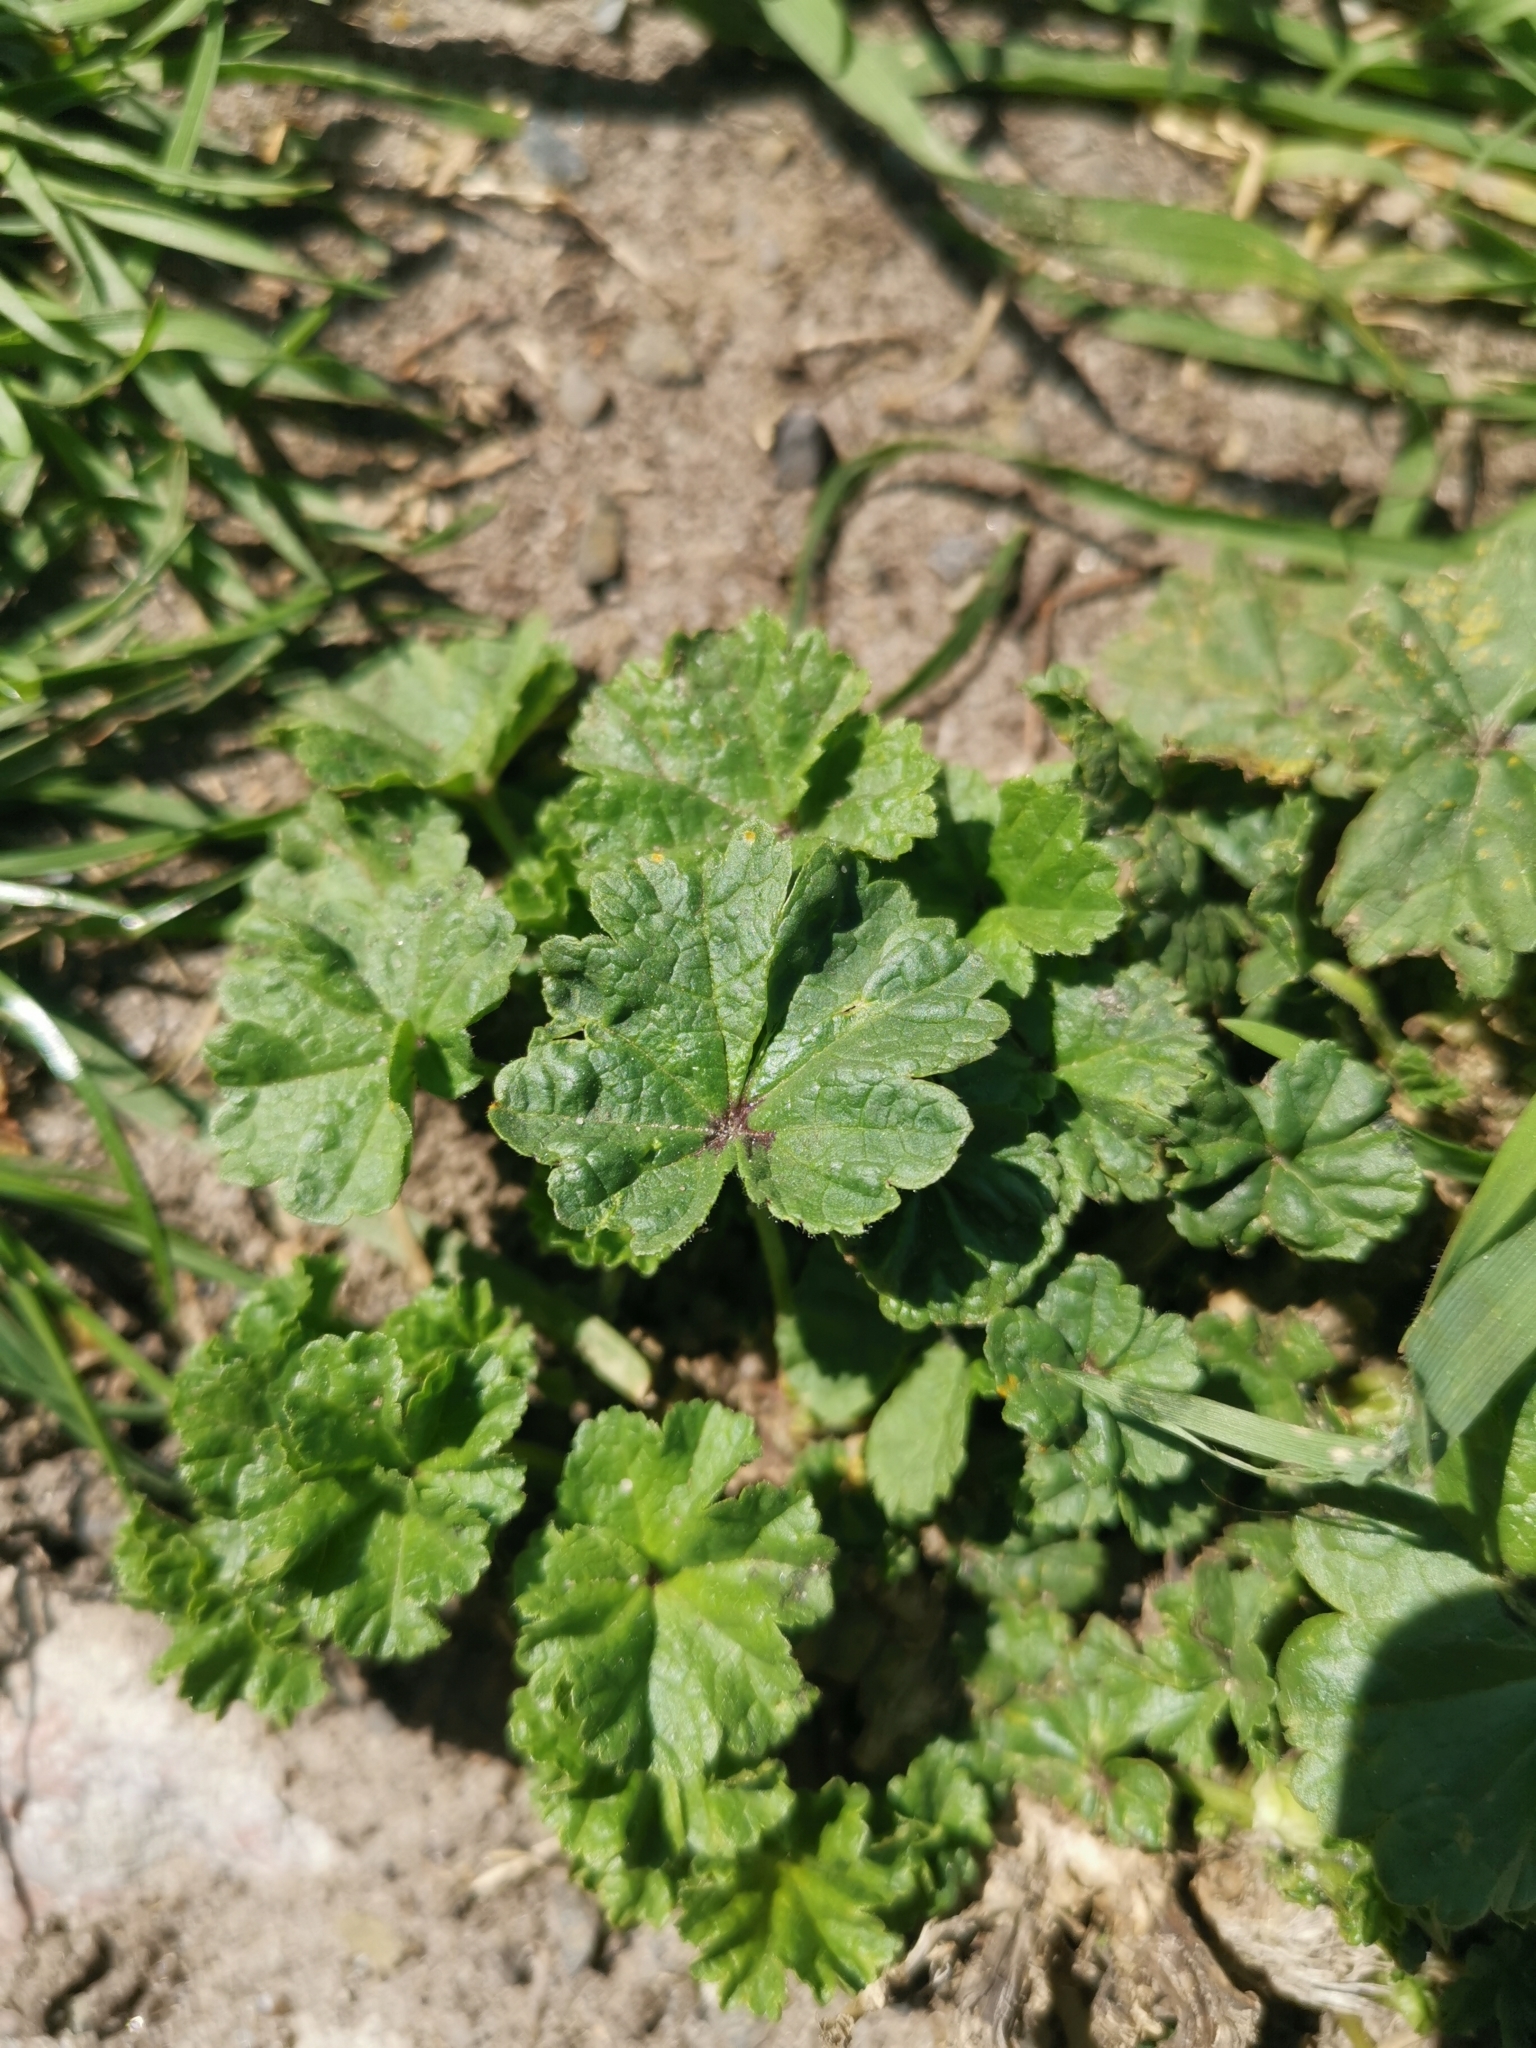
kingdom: Plantae
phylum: Tracheophyta
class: Magnoliopsida
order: Malvales
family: Malvaceae
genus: Malva
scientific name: Malva neglecta
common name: Common mallow
